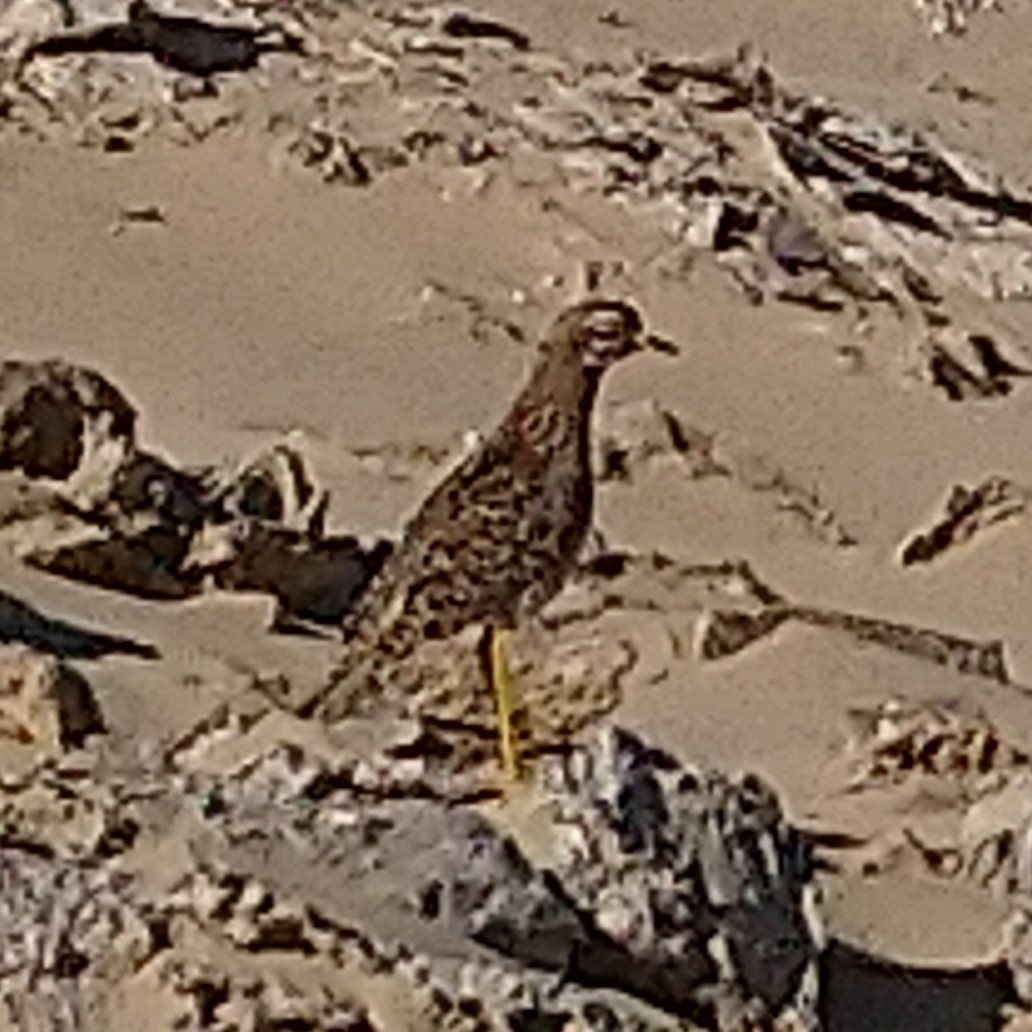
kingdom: Animalia
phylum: Chordata
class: Aves
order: Charadriiformes
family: Burhinidae
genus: Burhinus
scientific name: Burhinus capensis
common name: Spotted thick-knee
